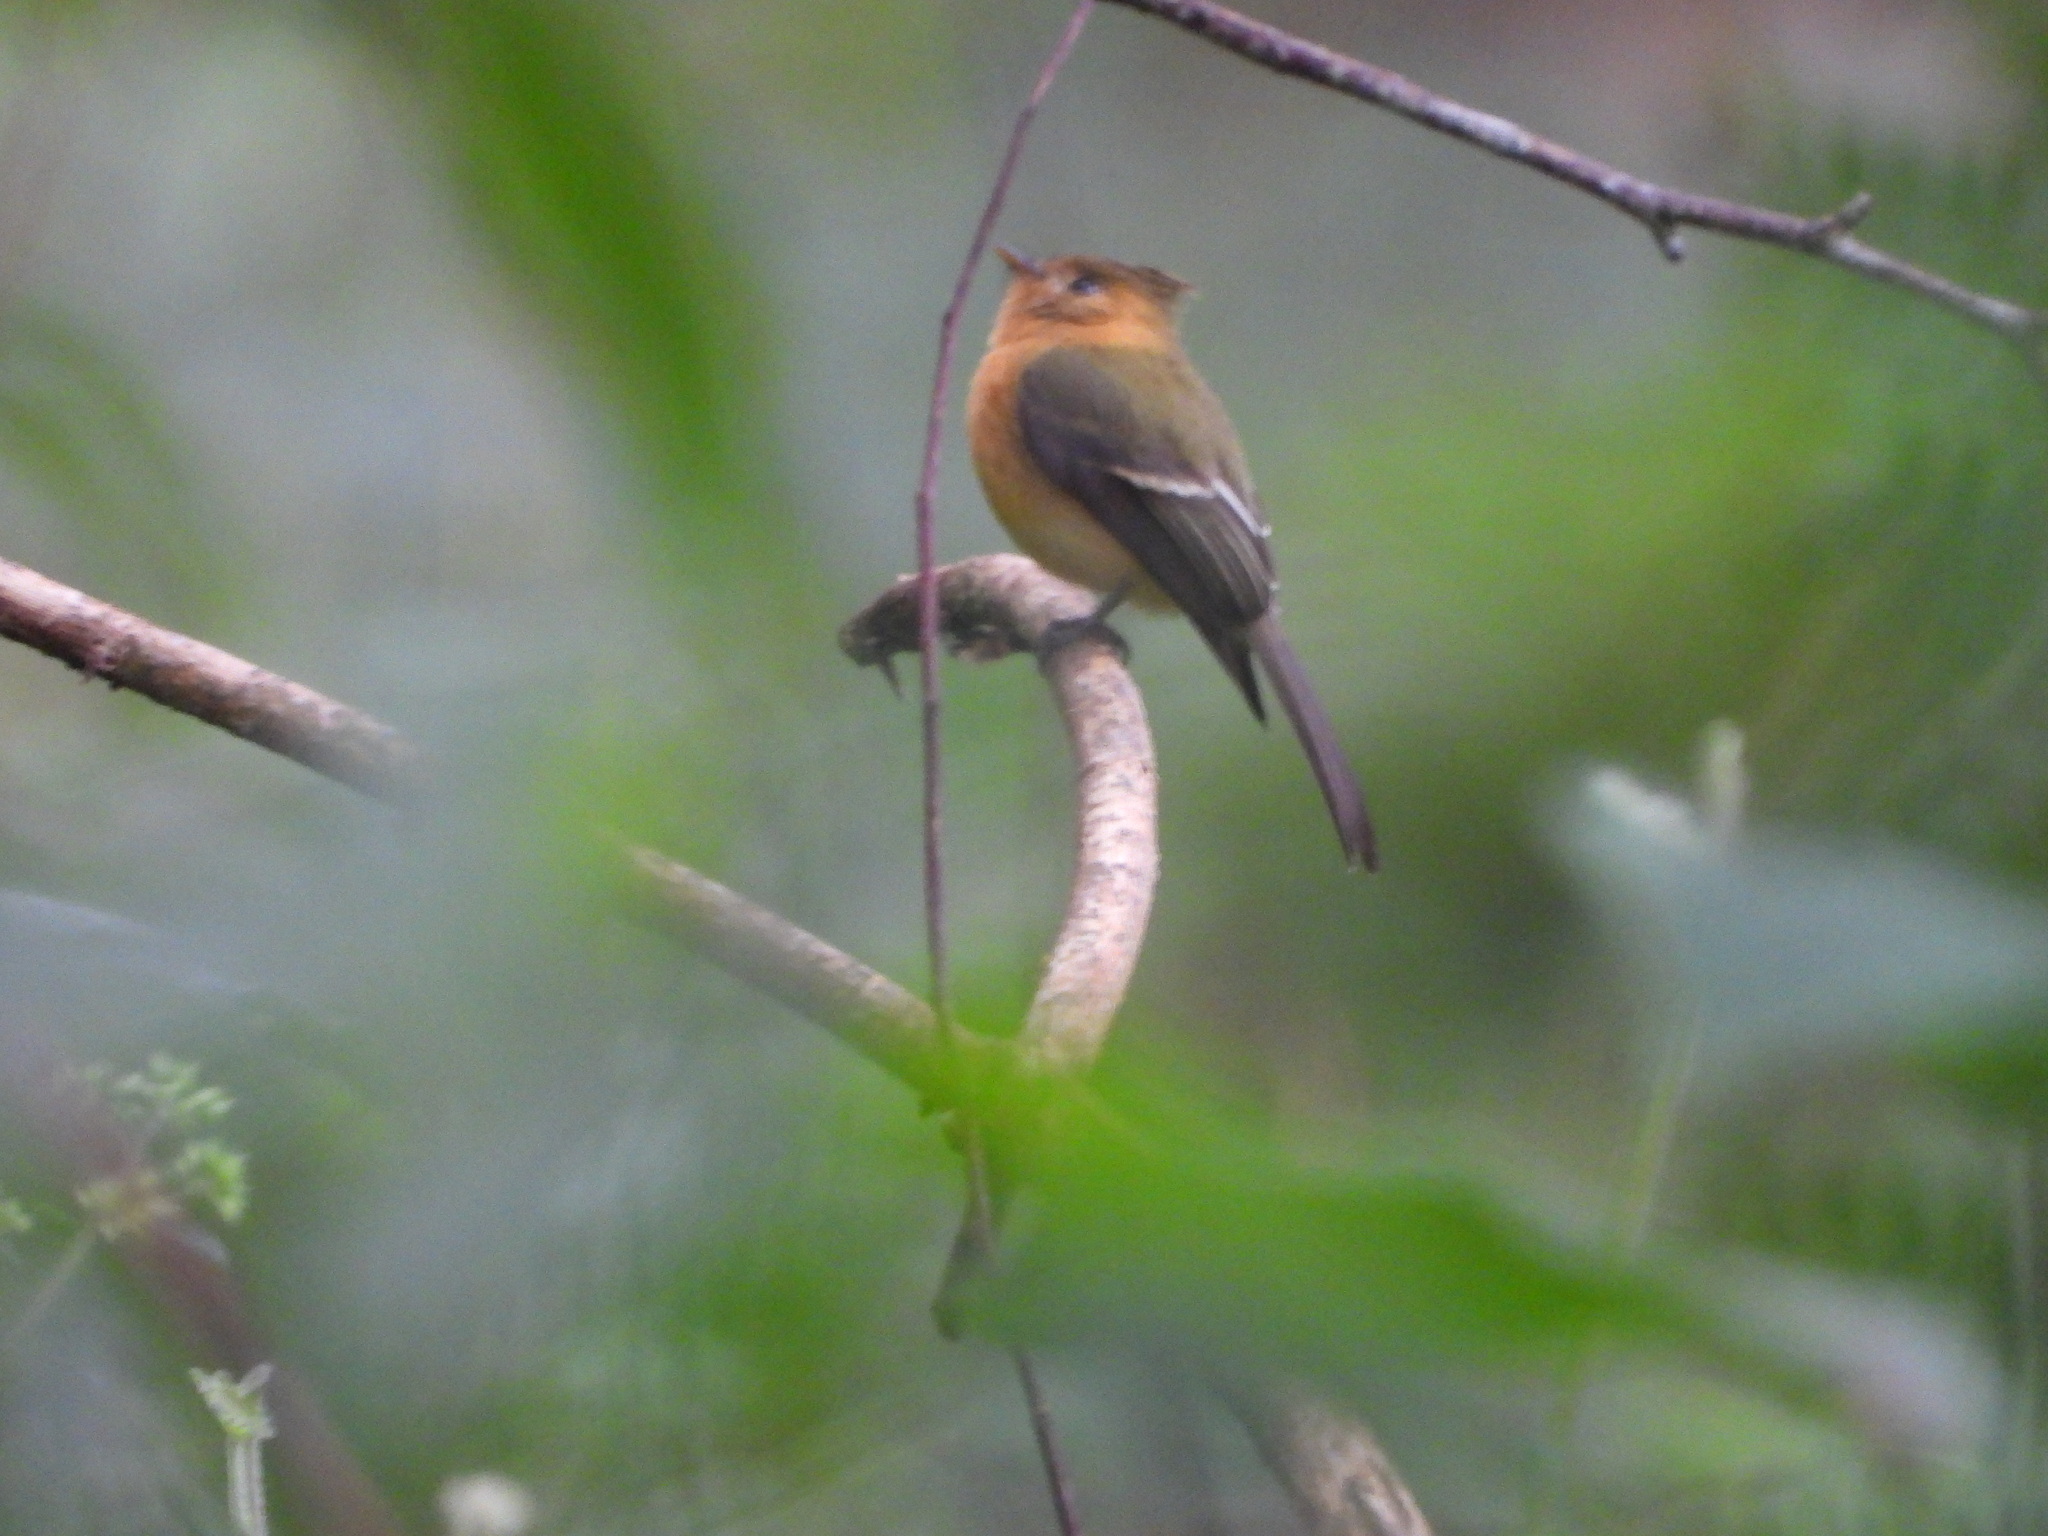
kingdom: Animalia
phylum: Chordata
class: Aves
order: Passeriformes
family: Tyrannidae
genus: Mitrephanes
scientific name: Mitrephanes phaeocercus
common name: Northern tufted flycatcher
